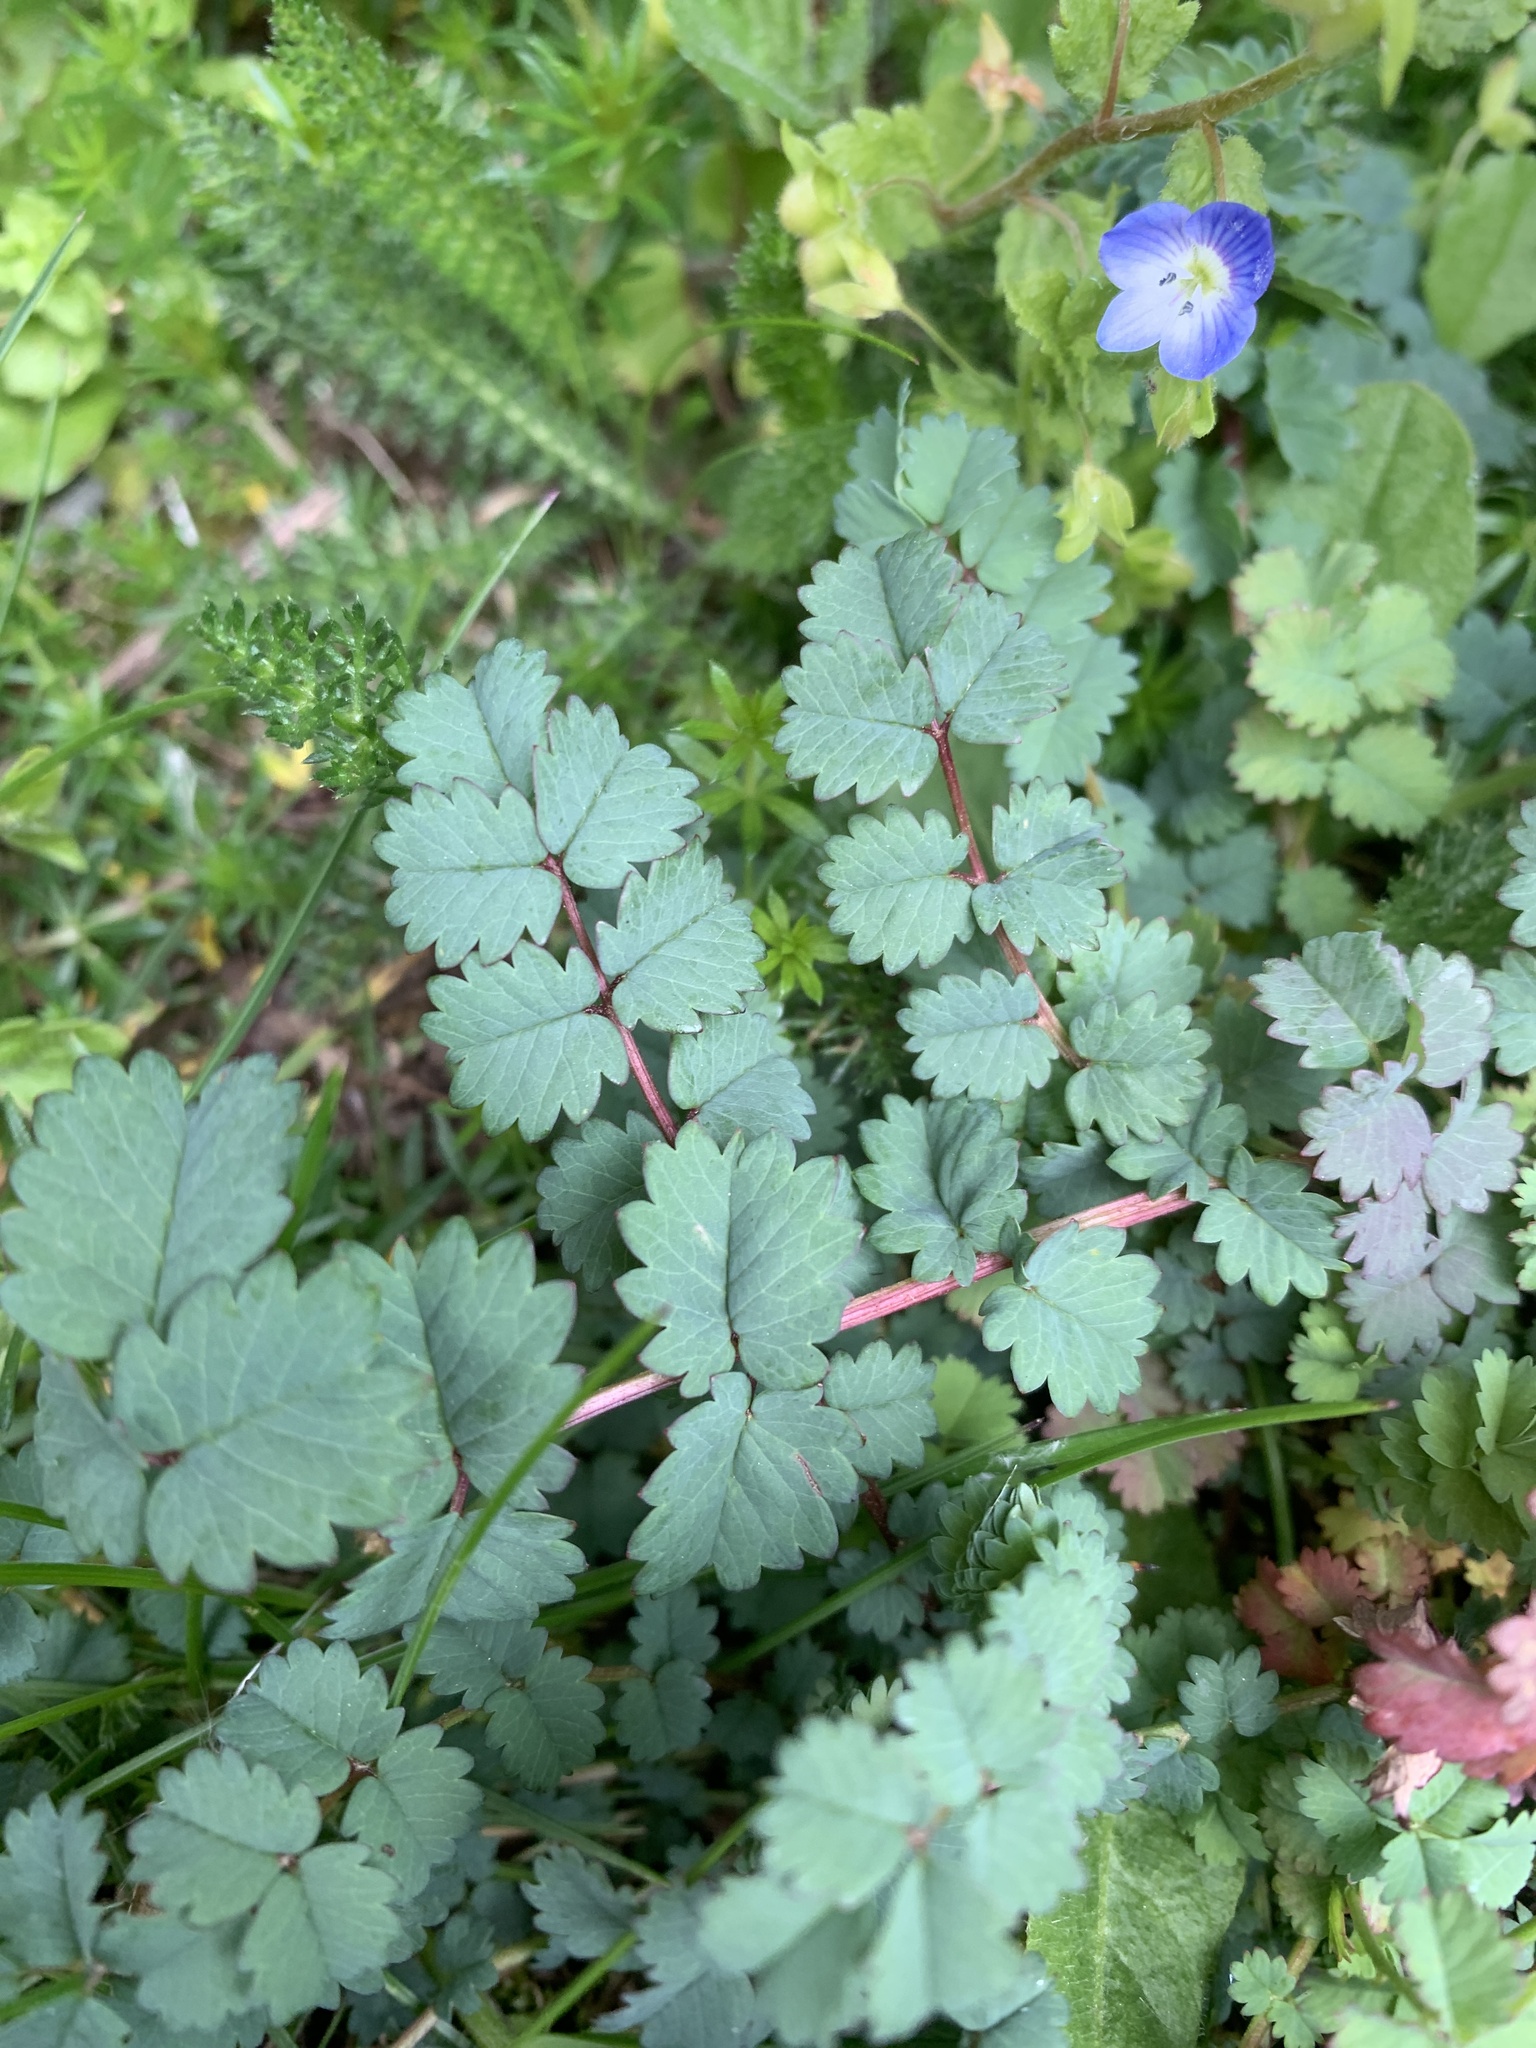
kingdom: Plantae
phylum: Tracheophyta
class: Magnoliopsida
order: Rosales
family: Rosaceae
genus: Poterium
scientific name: Poterium sanguisorba
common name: Salad burnet
